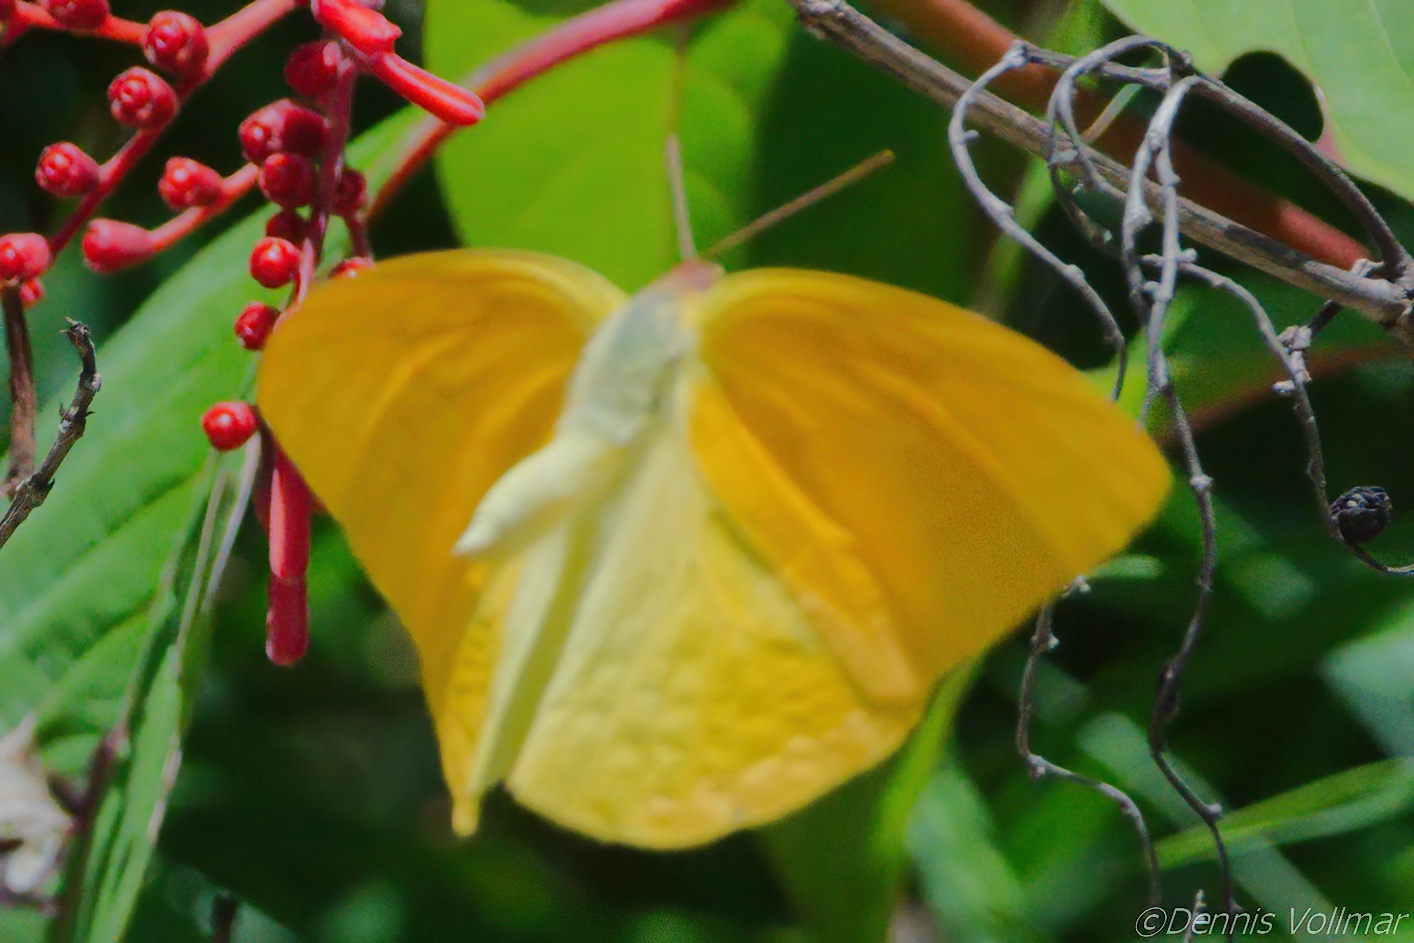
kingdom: Animalia
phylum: Arthropoda
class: Insecta
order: Lepidoptera
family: Pieridae
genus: Phoebis
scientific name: Phoebis agarithe
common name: Large orange sulphur
